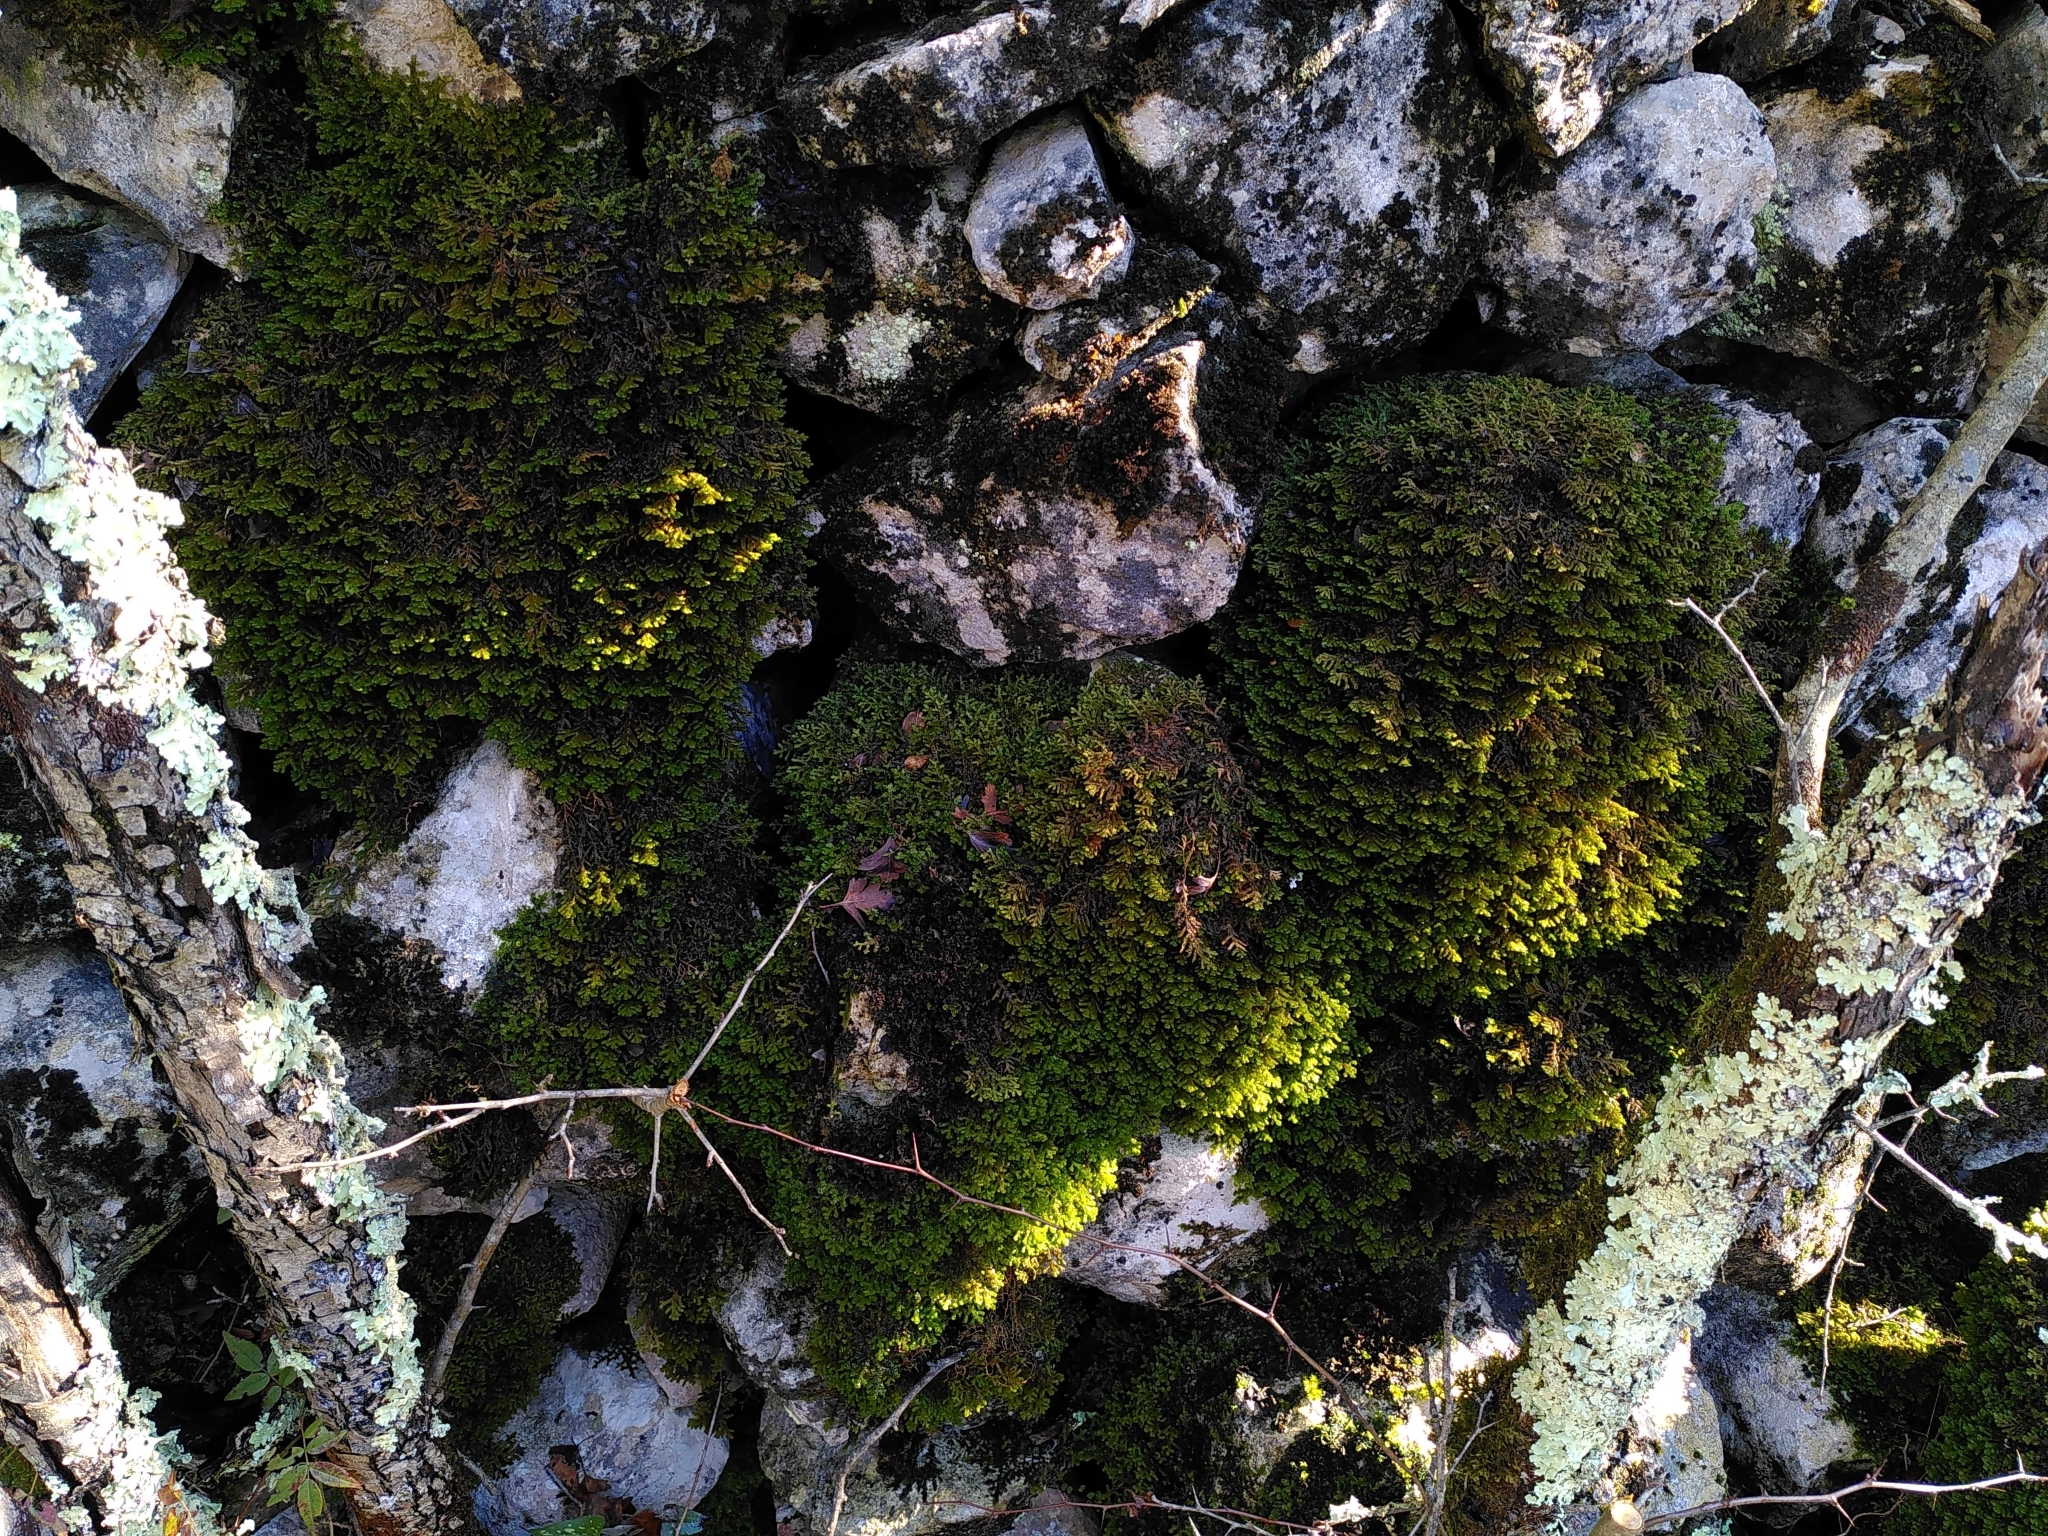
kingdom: Plantae
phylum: Marchantiophyta
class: Jungermanniopsida
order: Porellales
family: Porellaceae
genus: Porella
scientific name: Porella platyphylla
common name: Wall scalewort
